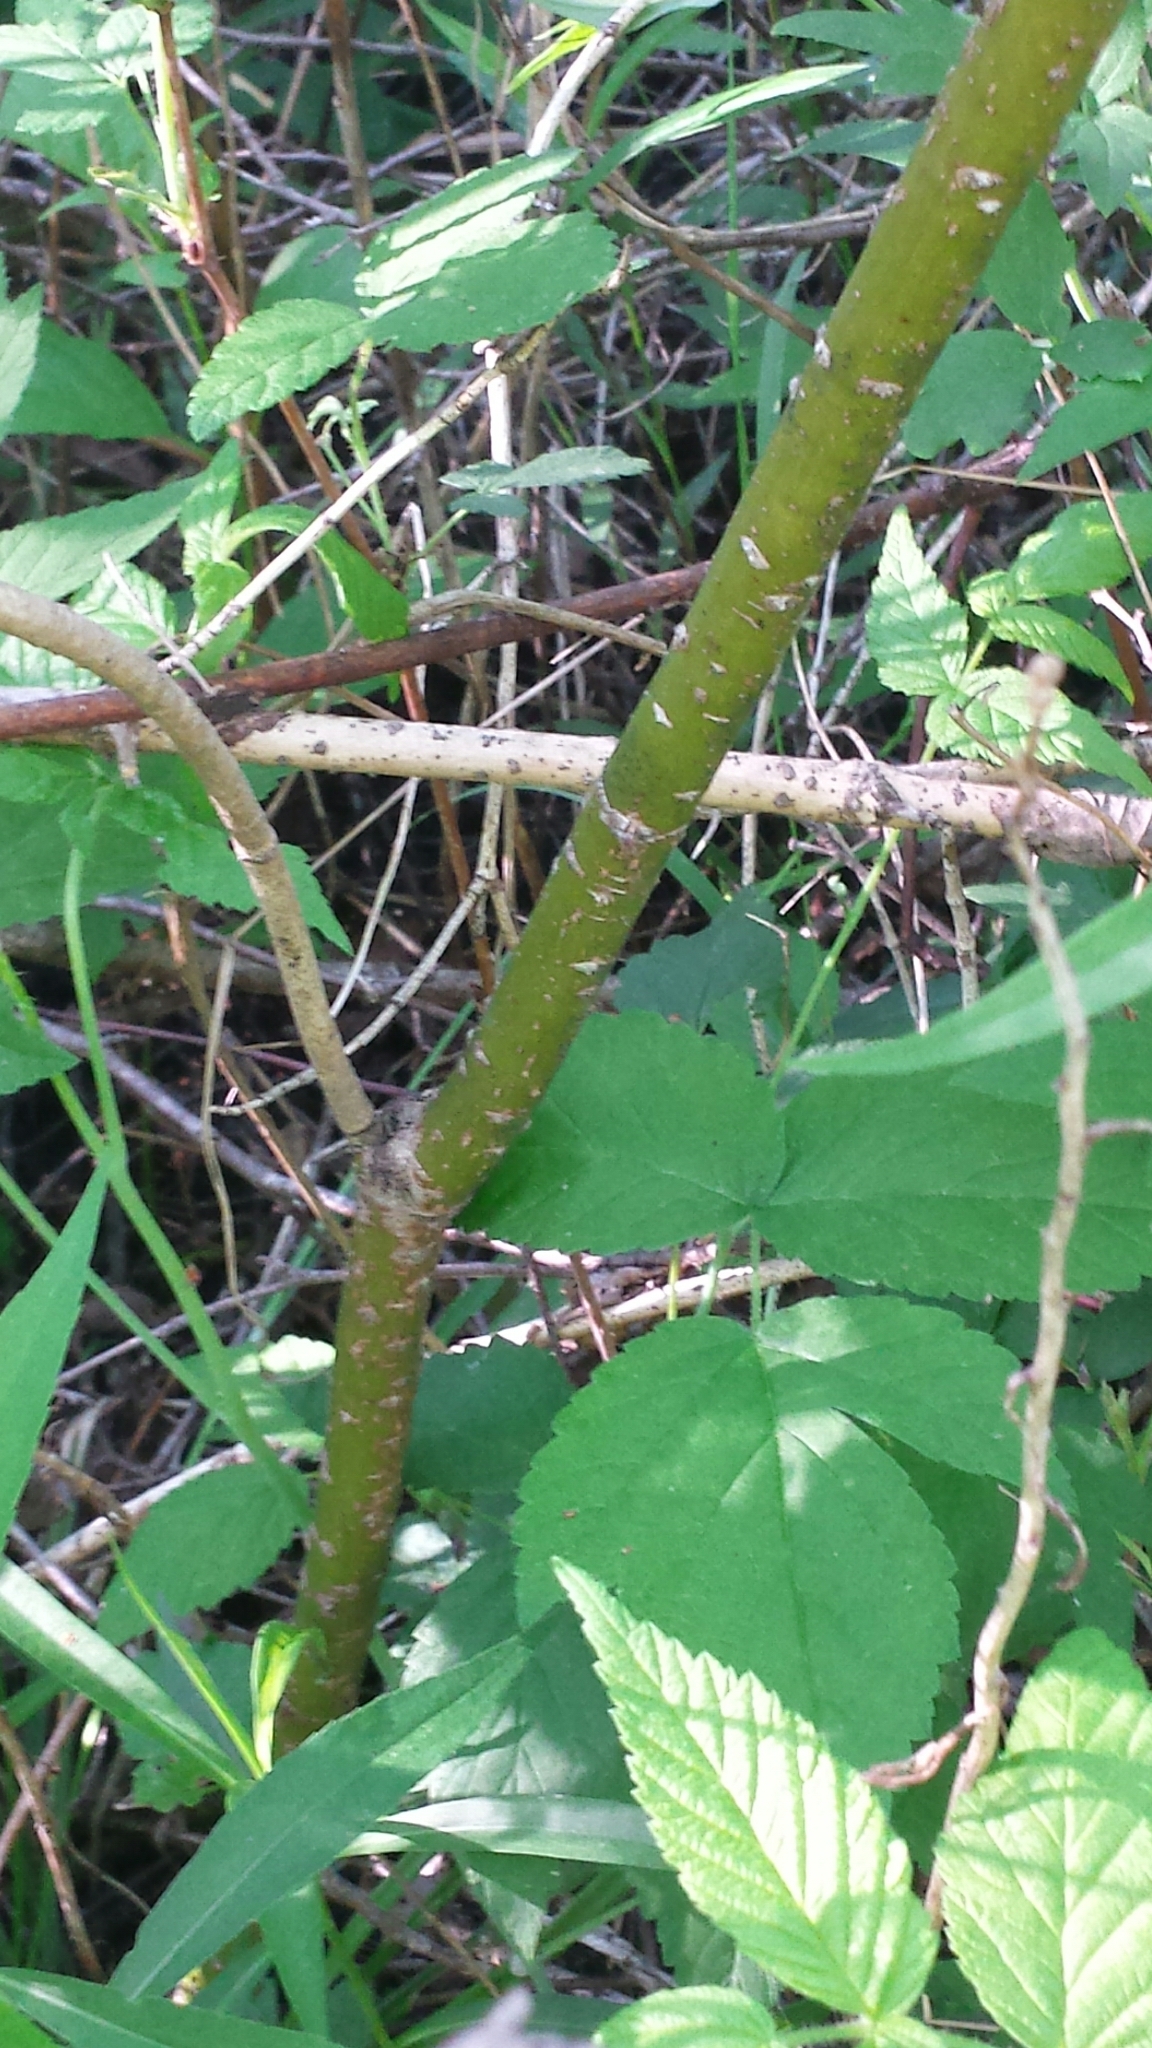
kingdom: Plantae
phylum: Tracheophyta
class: Magnoliopsida
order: Cornales
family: Cornaceae
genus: Cornus
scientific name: Cornus sericea
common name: Red-osier dogwood
